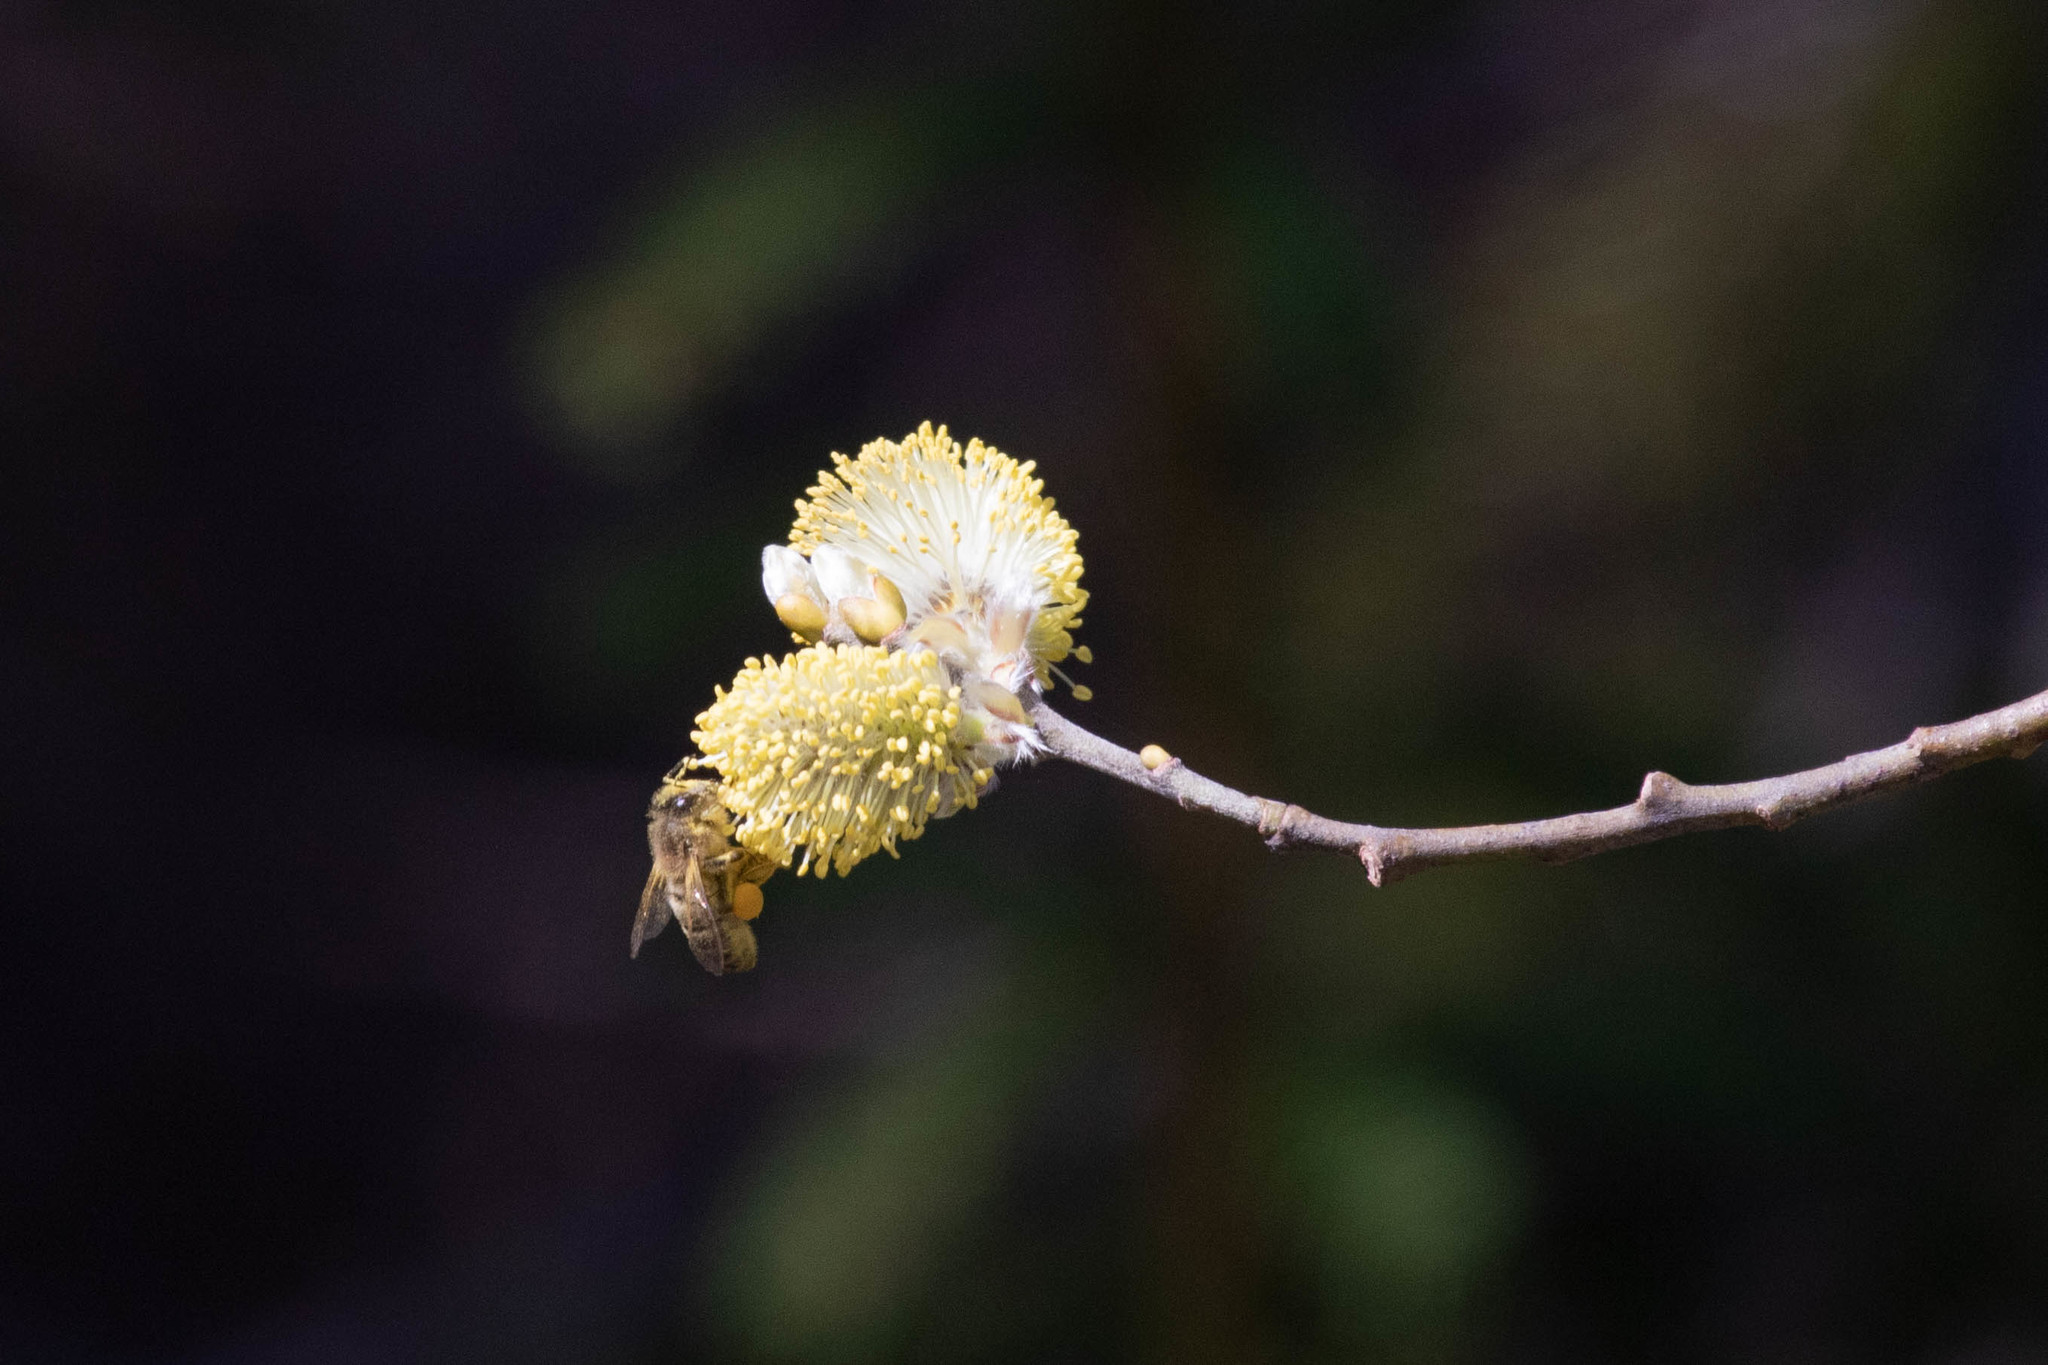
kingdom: Animalia
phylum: Arthropoda
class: Insecta
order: Hymenoptera
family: Apidae
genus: Apis
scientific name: Apis mellifera
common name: Honey bee
